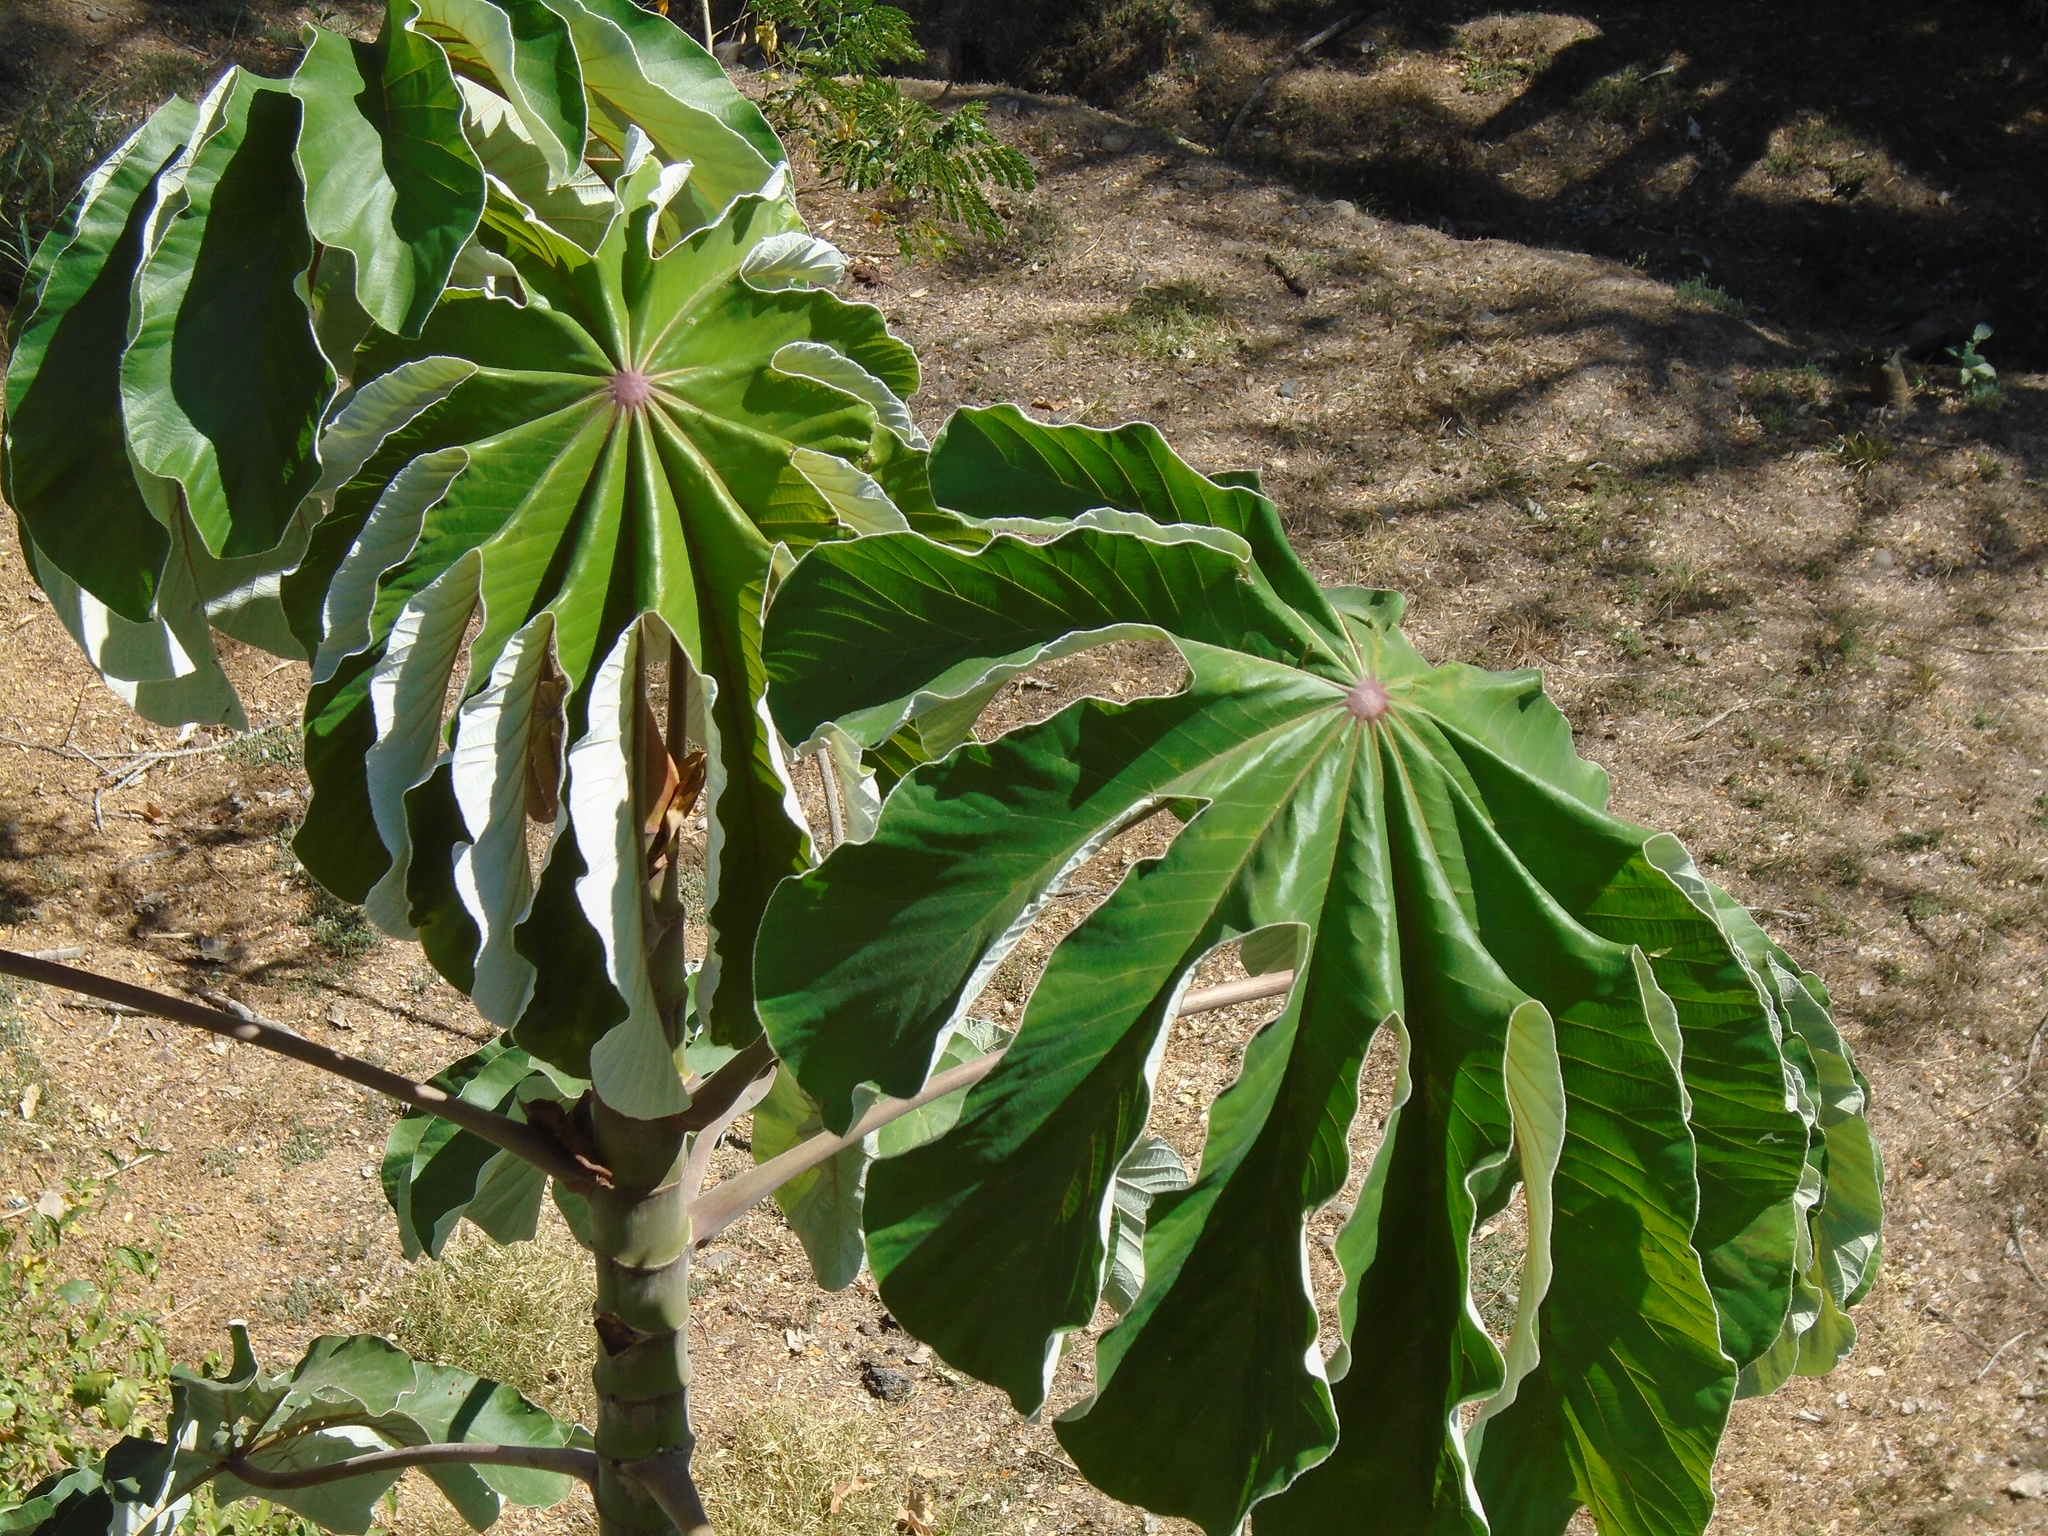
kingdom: Plantae
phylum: Tracheophyta
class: Magnoliopsida
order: Rosales
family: Urticaceae
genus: Cecropia
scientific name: Cecropia peltata
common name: Trumpet-tree
